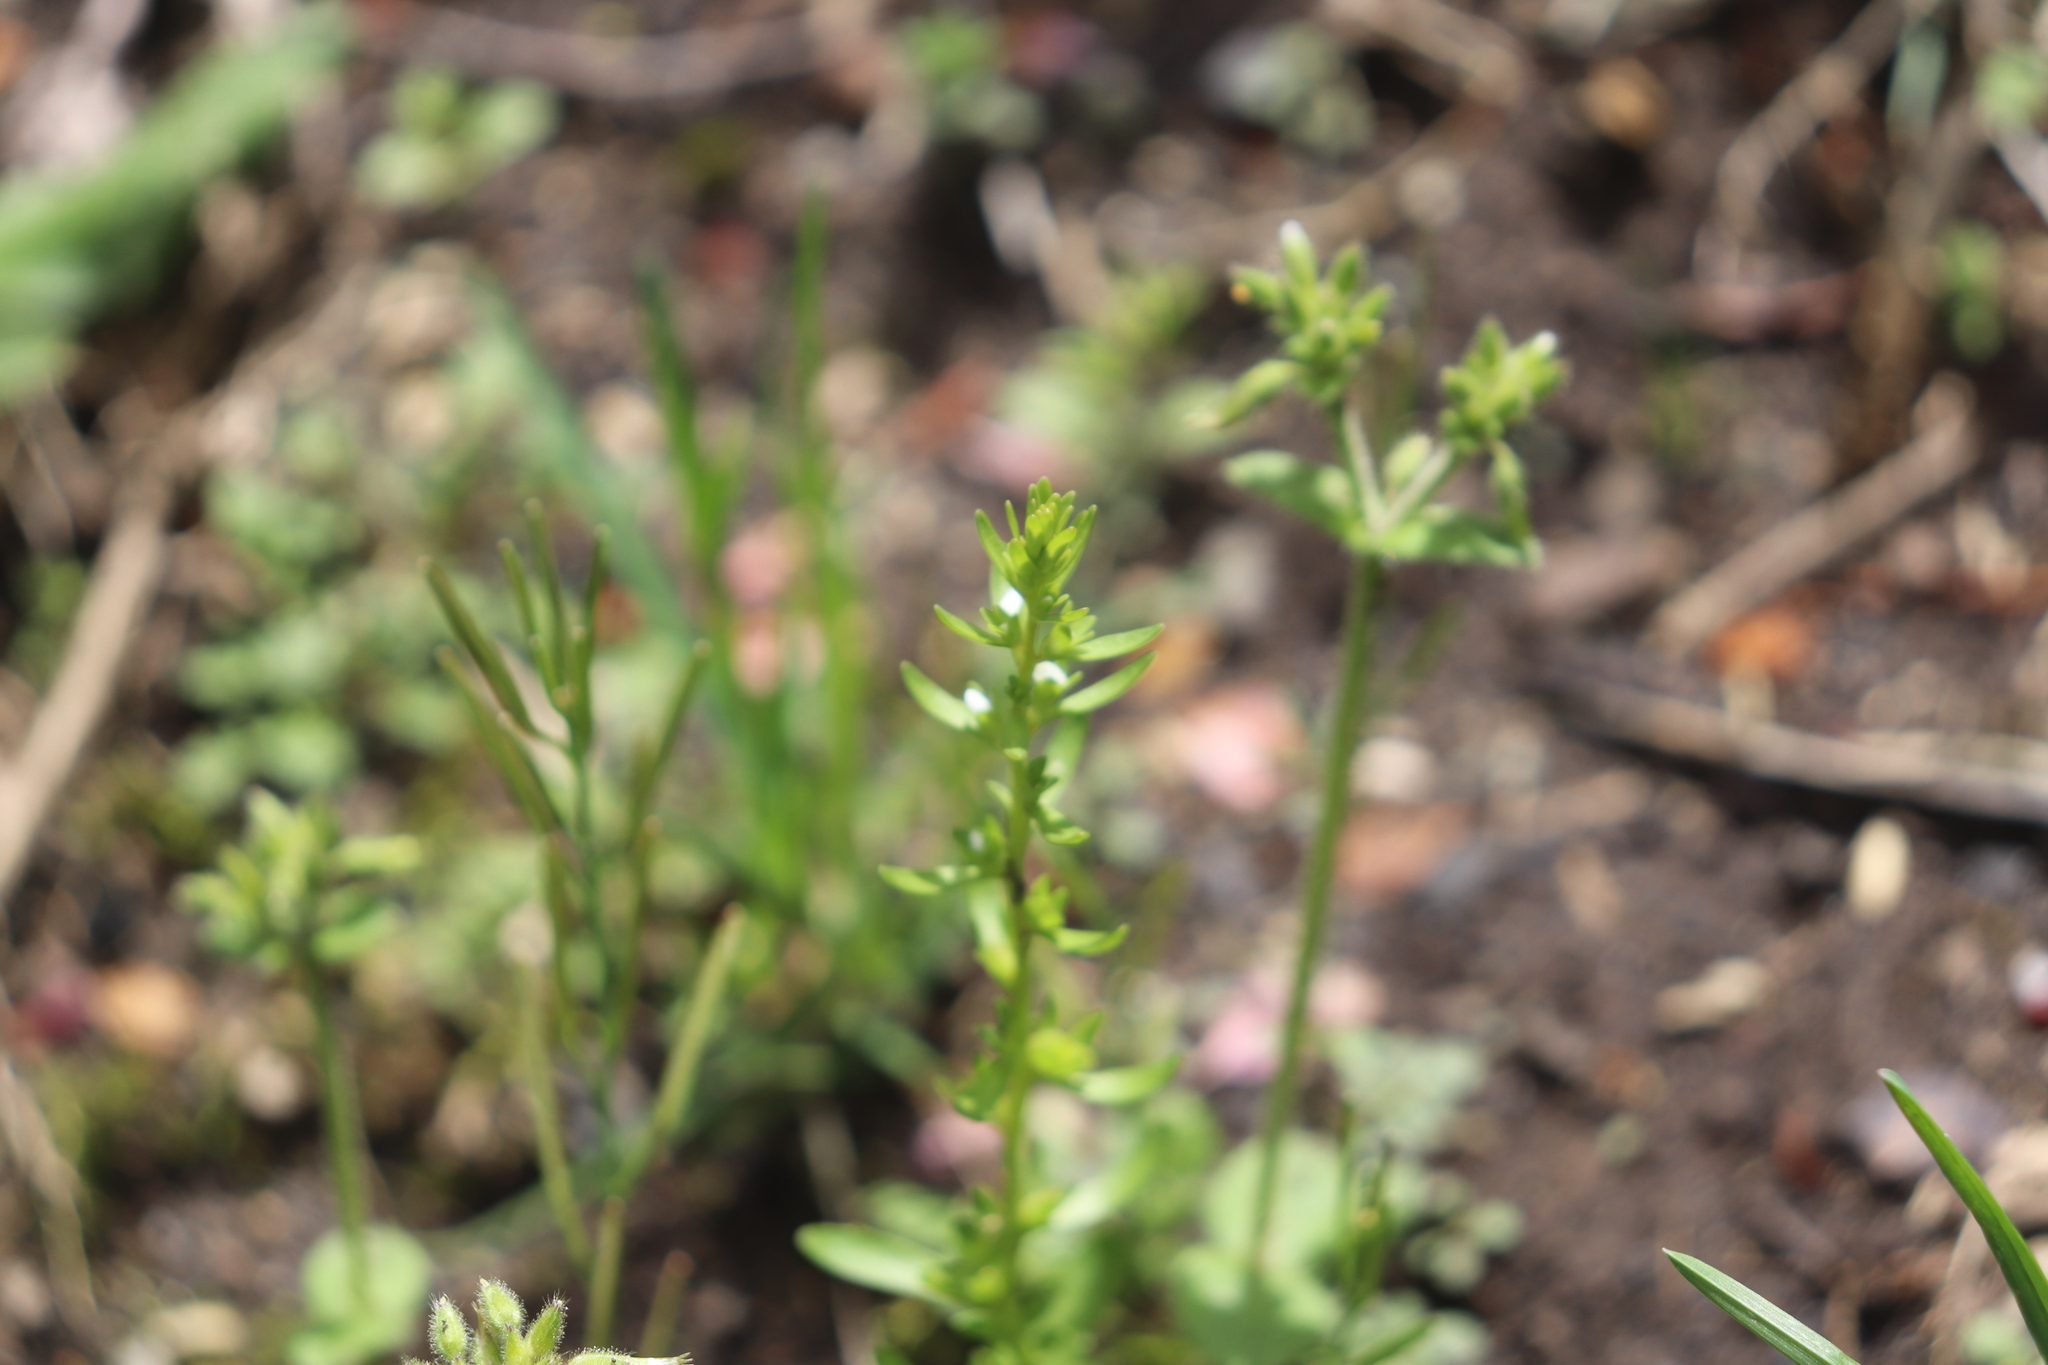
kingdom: Plantae
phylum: Tracheophyta
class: Magnoliopsida
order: Lamiales
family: Plantaginaceae
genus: Veronica
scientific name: Veronica peregrina
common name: Neckweed
